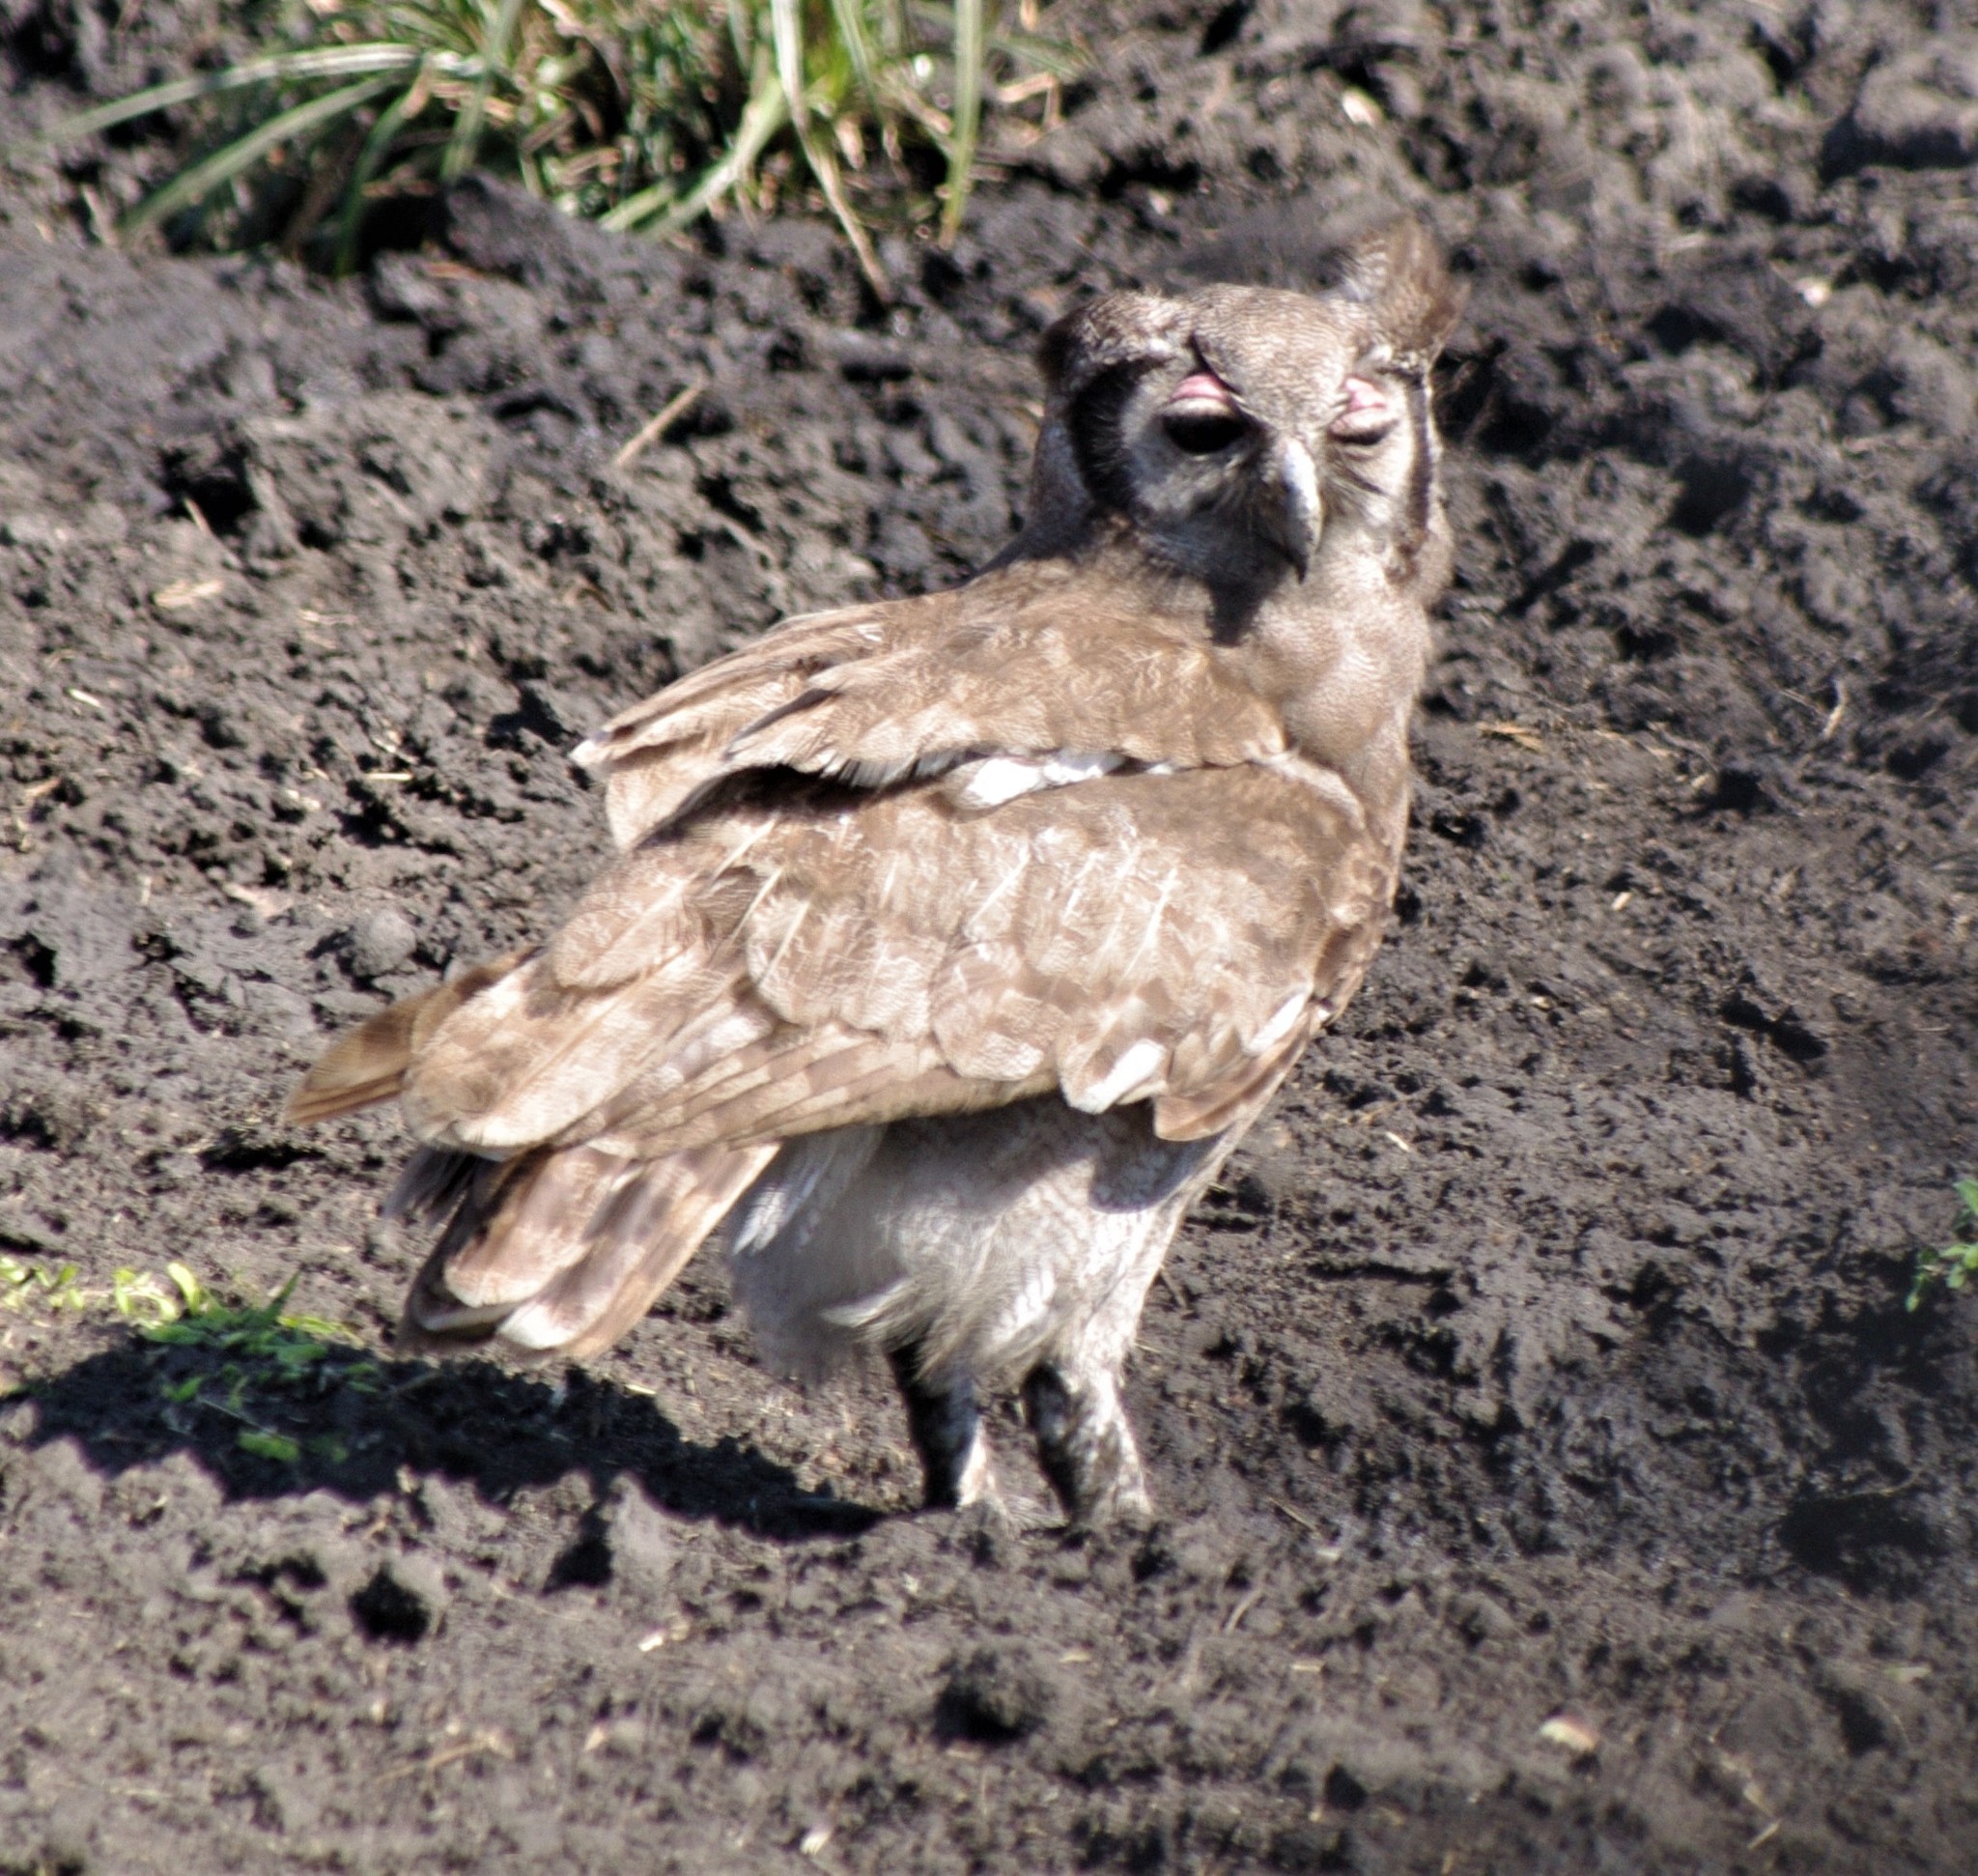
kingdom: Animalia
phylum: Chordata
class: Aves
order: Strigiformes
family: Strigidae
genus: Bubo
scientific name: Bubo lacteus
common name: Verreaux's eagle-owl
